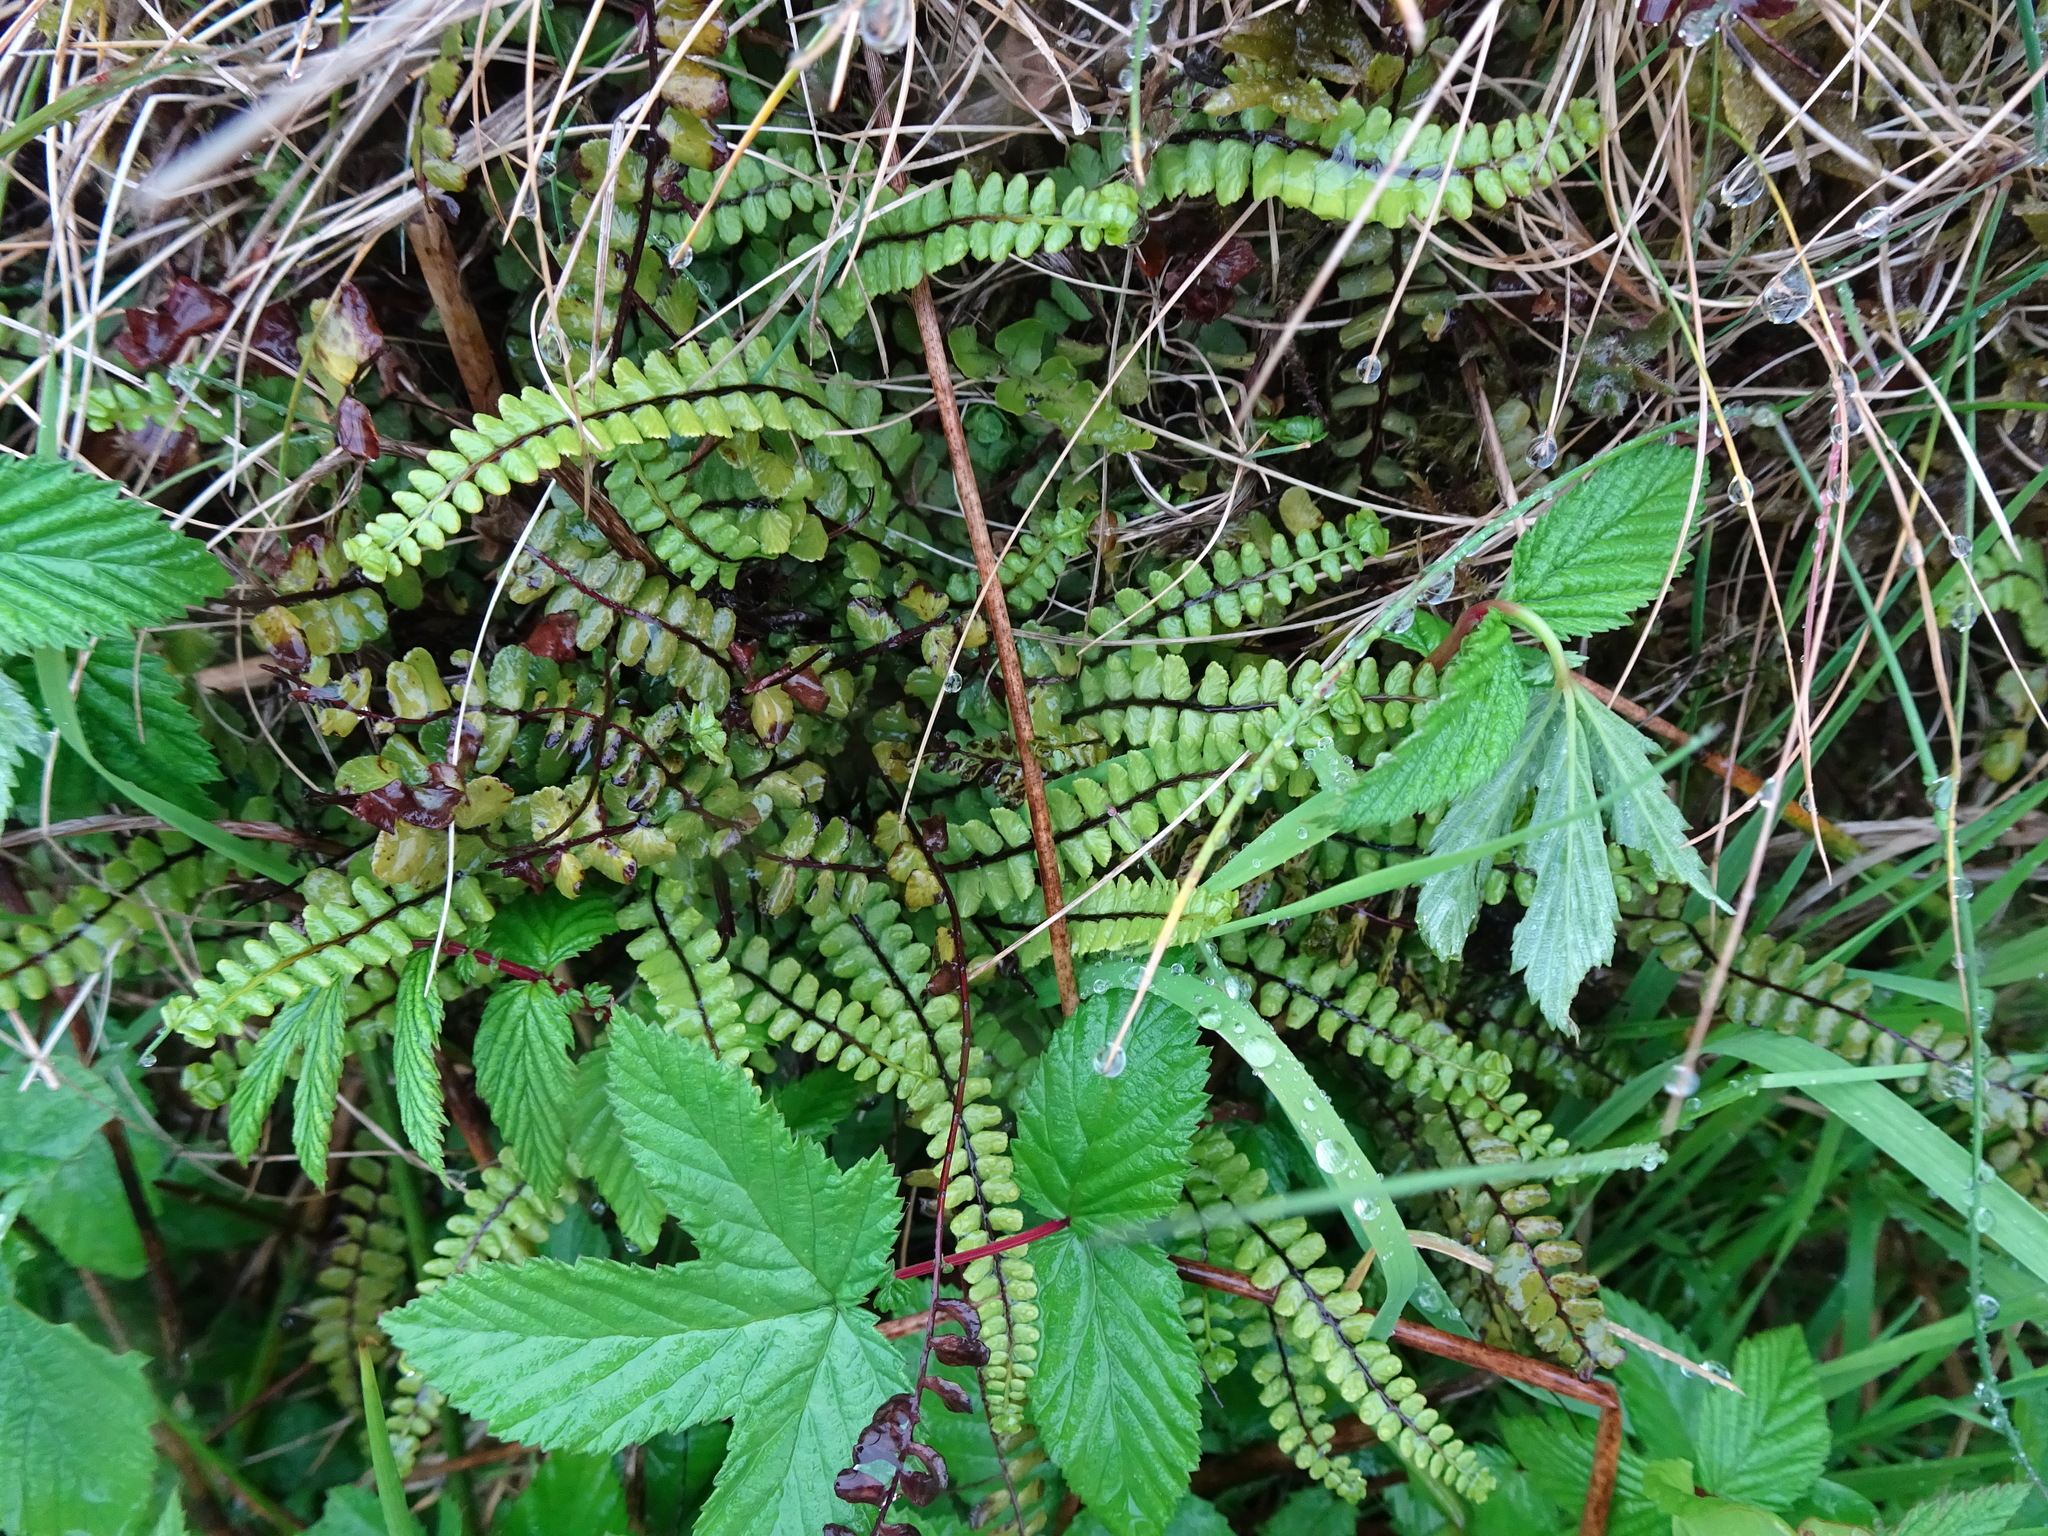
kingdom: Plantae
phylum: Tracheophyta
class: Polypodiopsida
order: Polypodiales
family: Aspleniaceae
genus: Asplenium
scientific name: Asplenium trichomanes
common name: Maidenhair spleenwort
